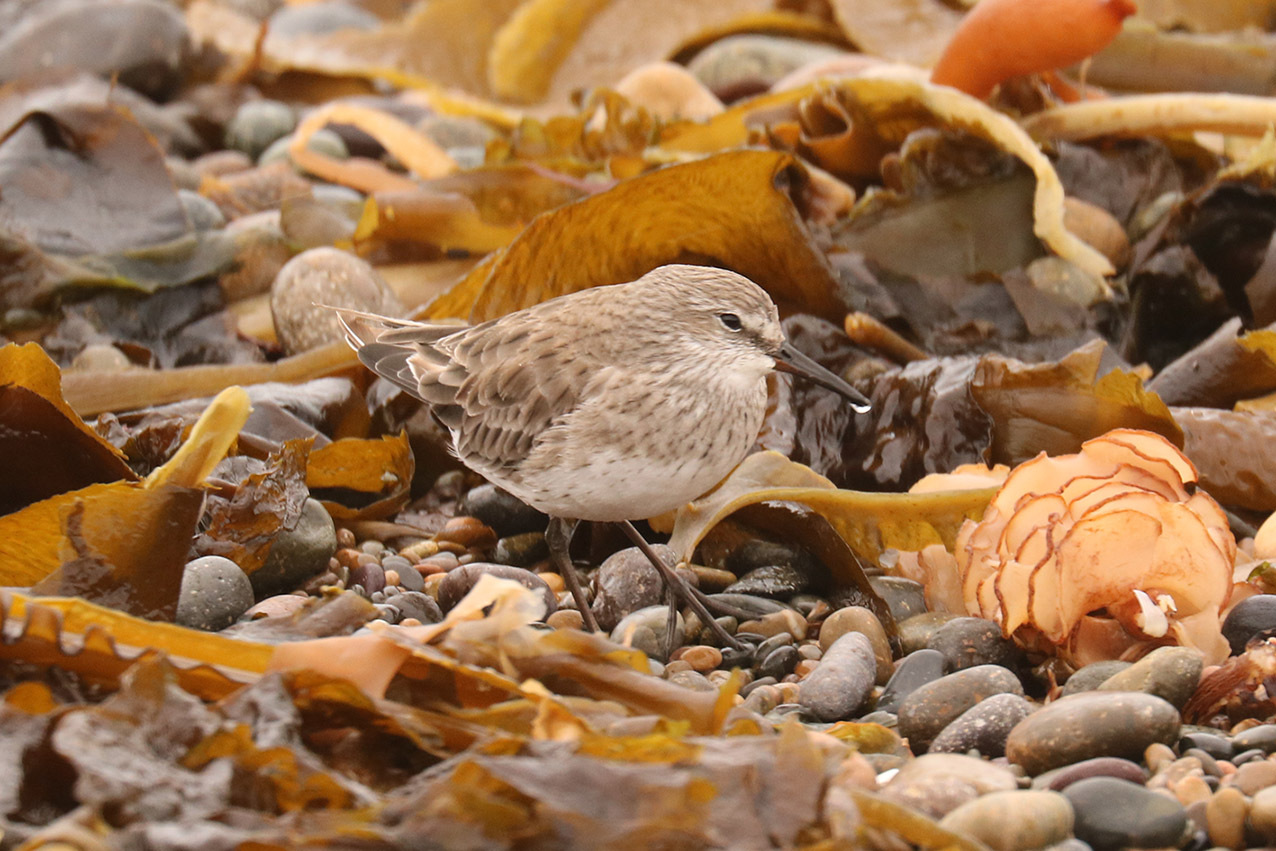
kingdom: Animalia
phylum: Chordata
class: Aves
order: Charadriiformes
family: Scolopacidae
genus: Calidris
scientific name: Calidris fuscicollis
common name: White-rumped sandpiper
